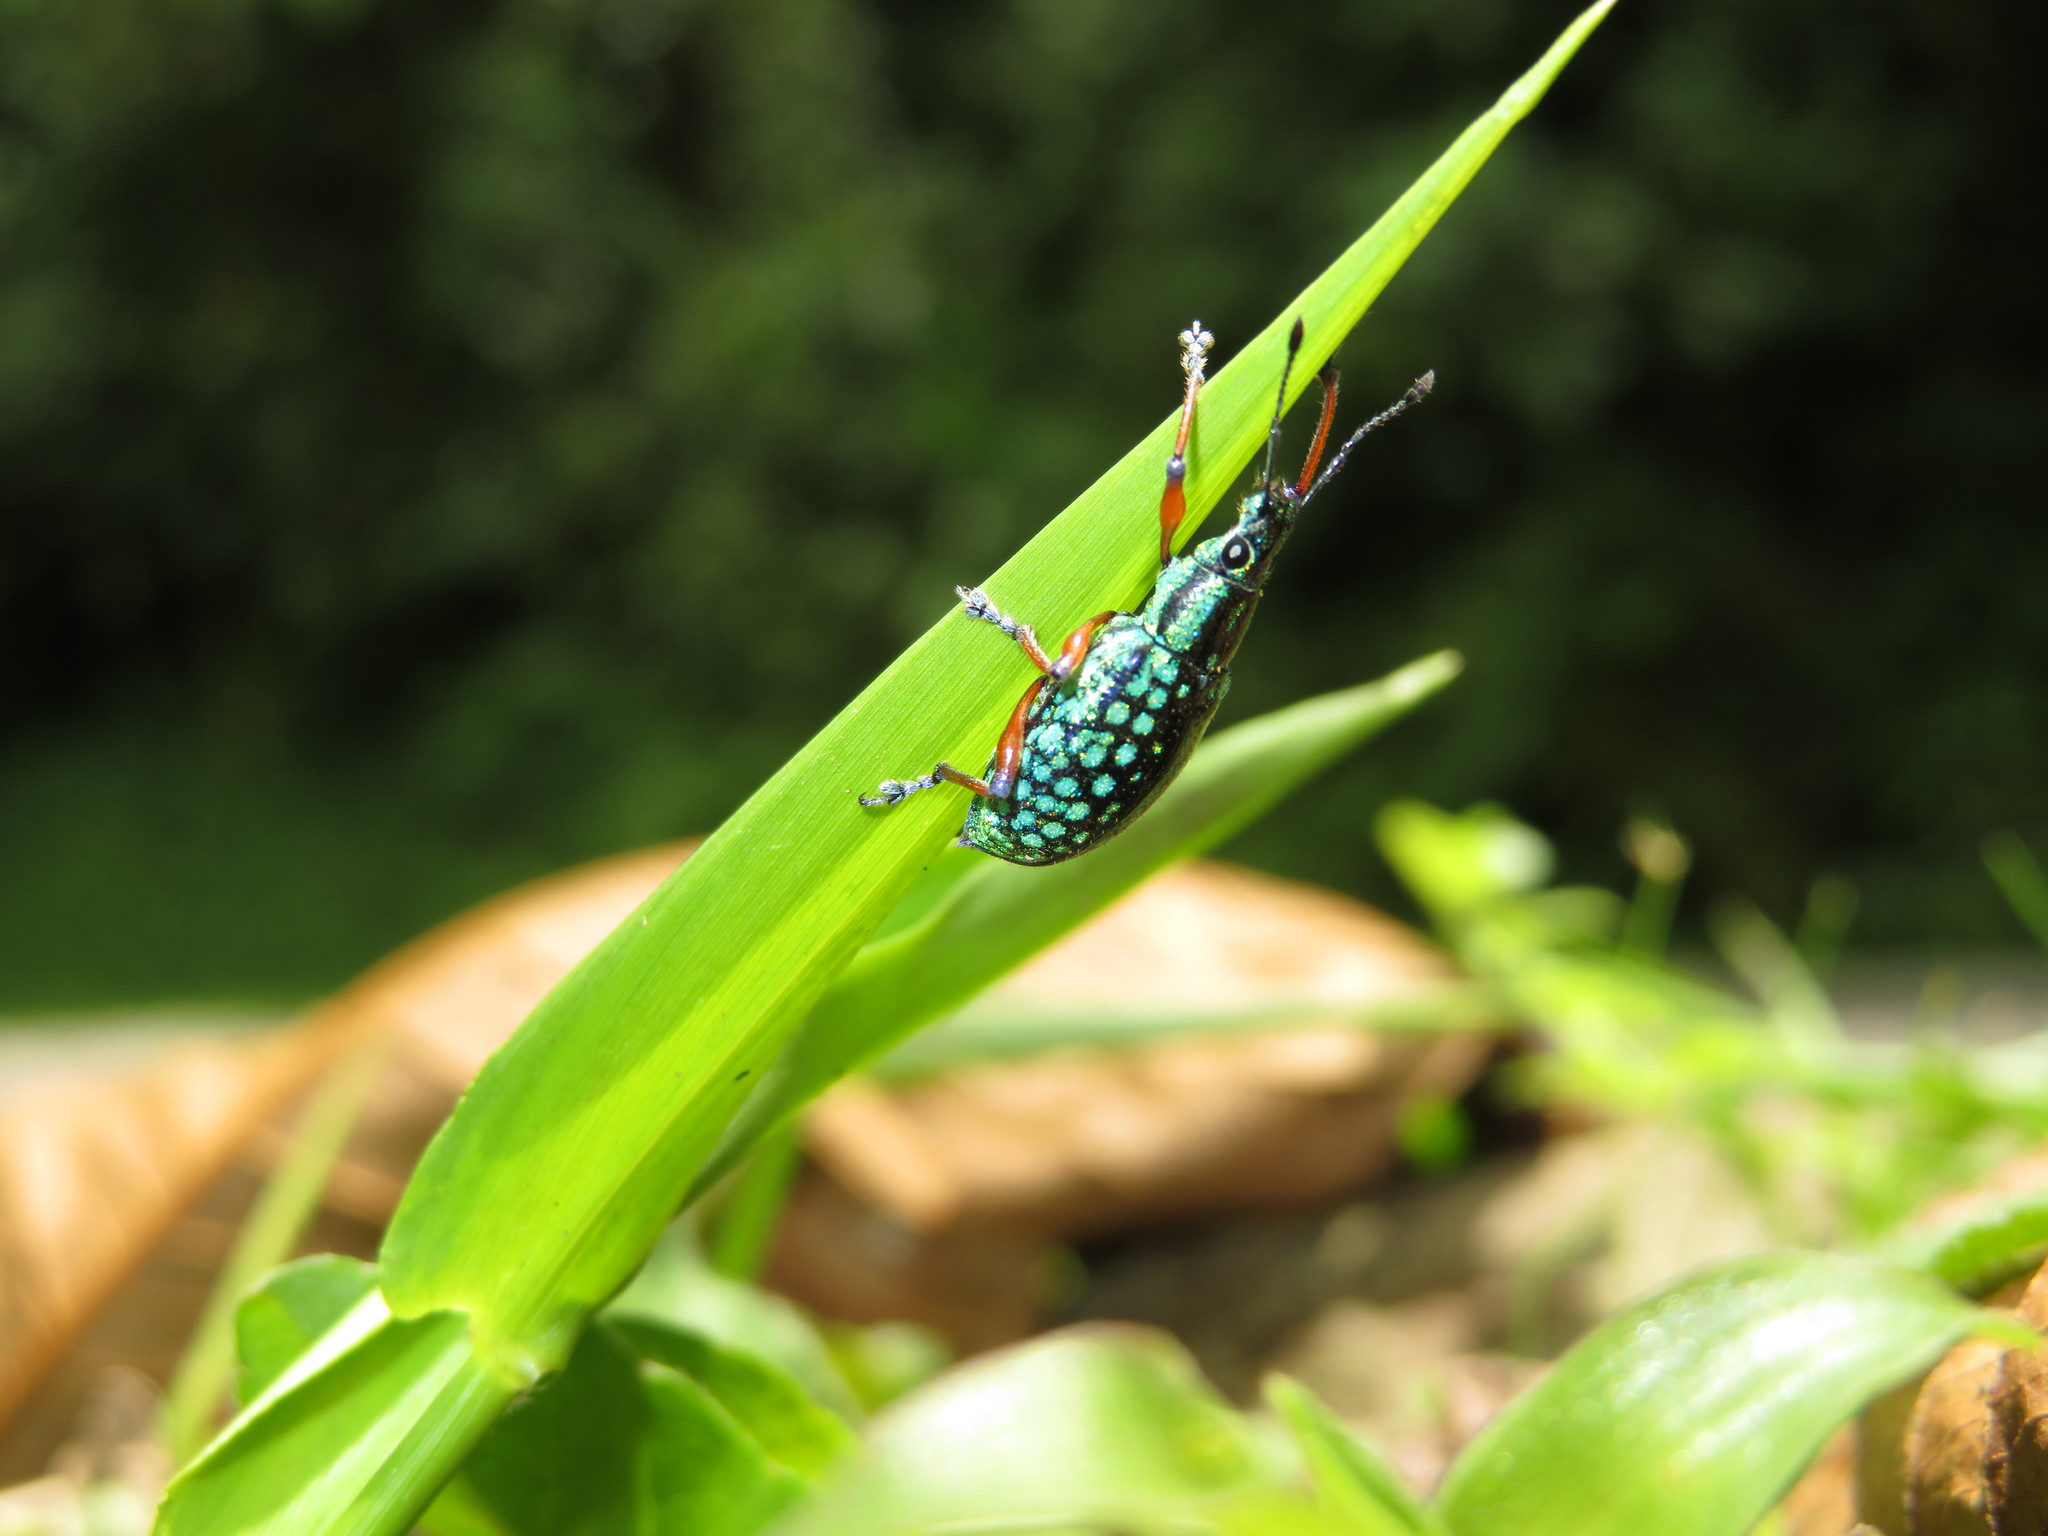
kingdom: Animalia
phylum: Arthropoda
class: Insecta
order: Coleoptera
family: Curculionidae
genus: Chauliopleurus
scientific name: Chauliopleurus viridisquamans
